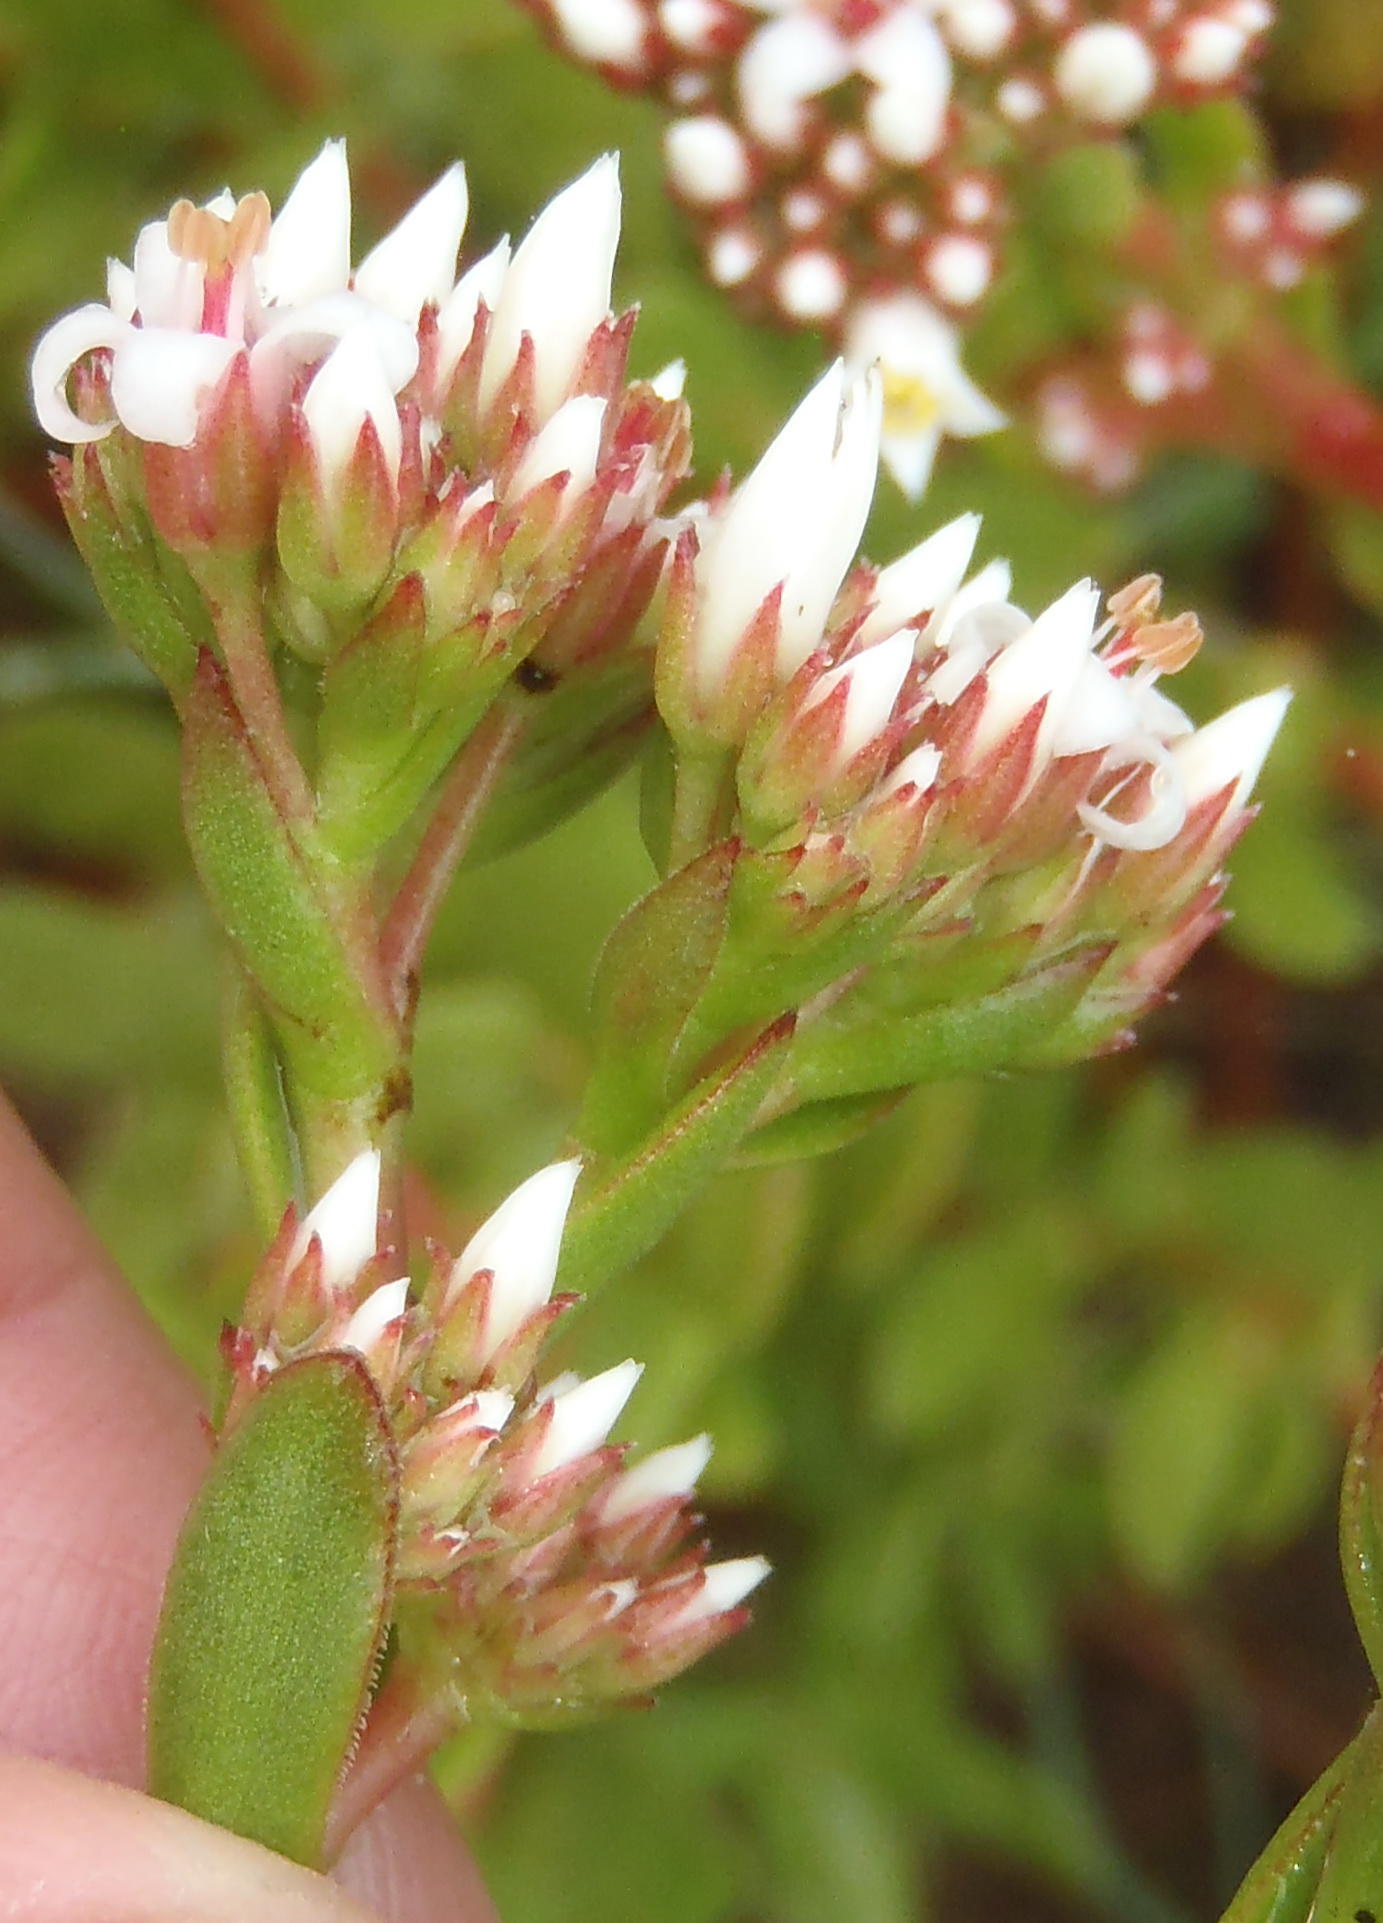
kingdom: Plantae
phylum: Tracheophyta
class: Magnoliopsida
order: Saxifragales
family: Crassulaceae
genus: Crassula
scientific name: Crassula rubricaulis
